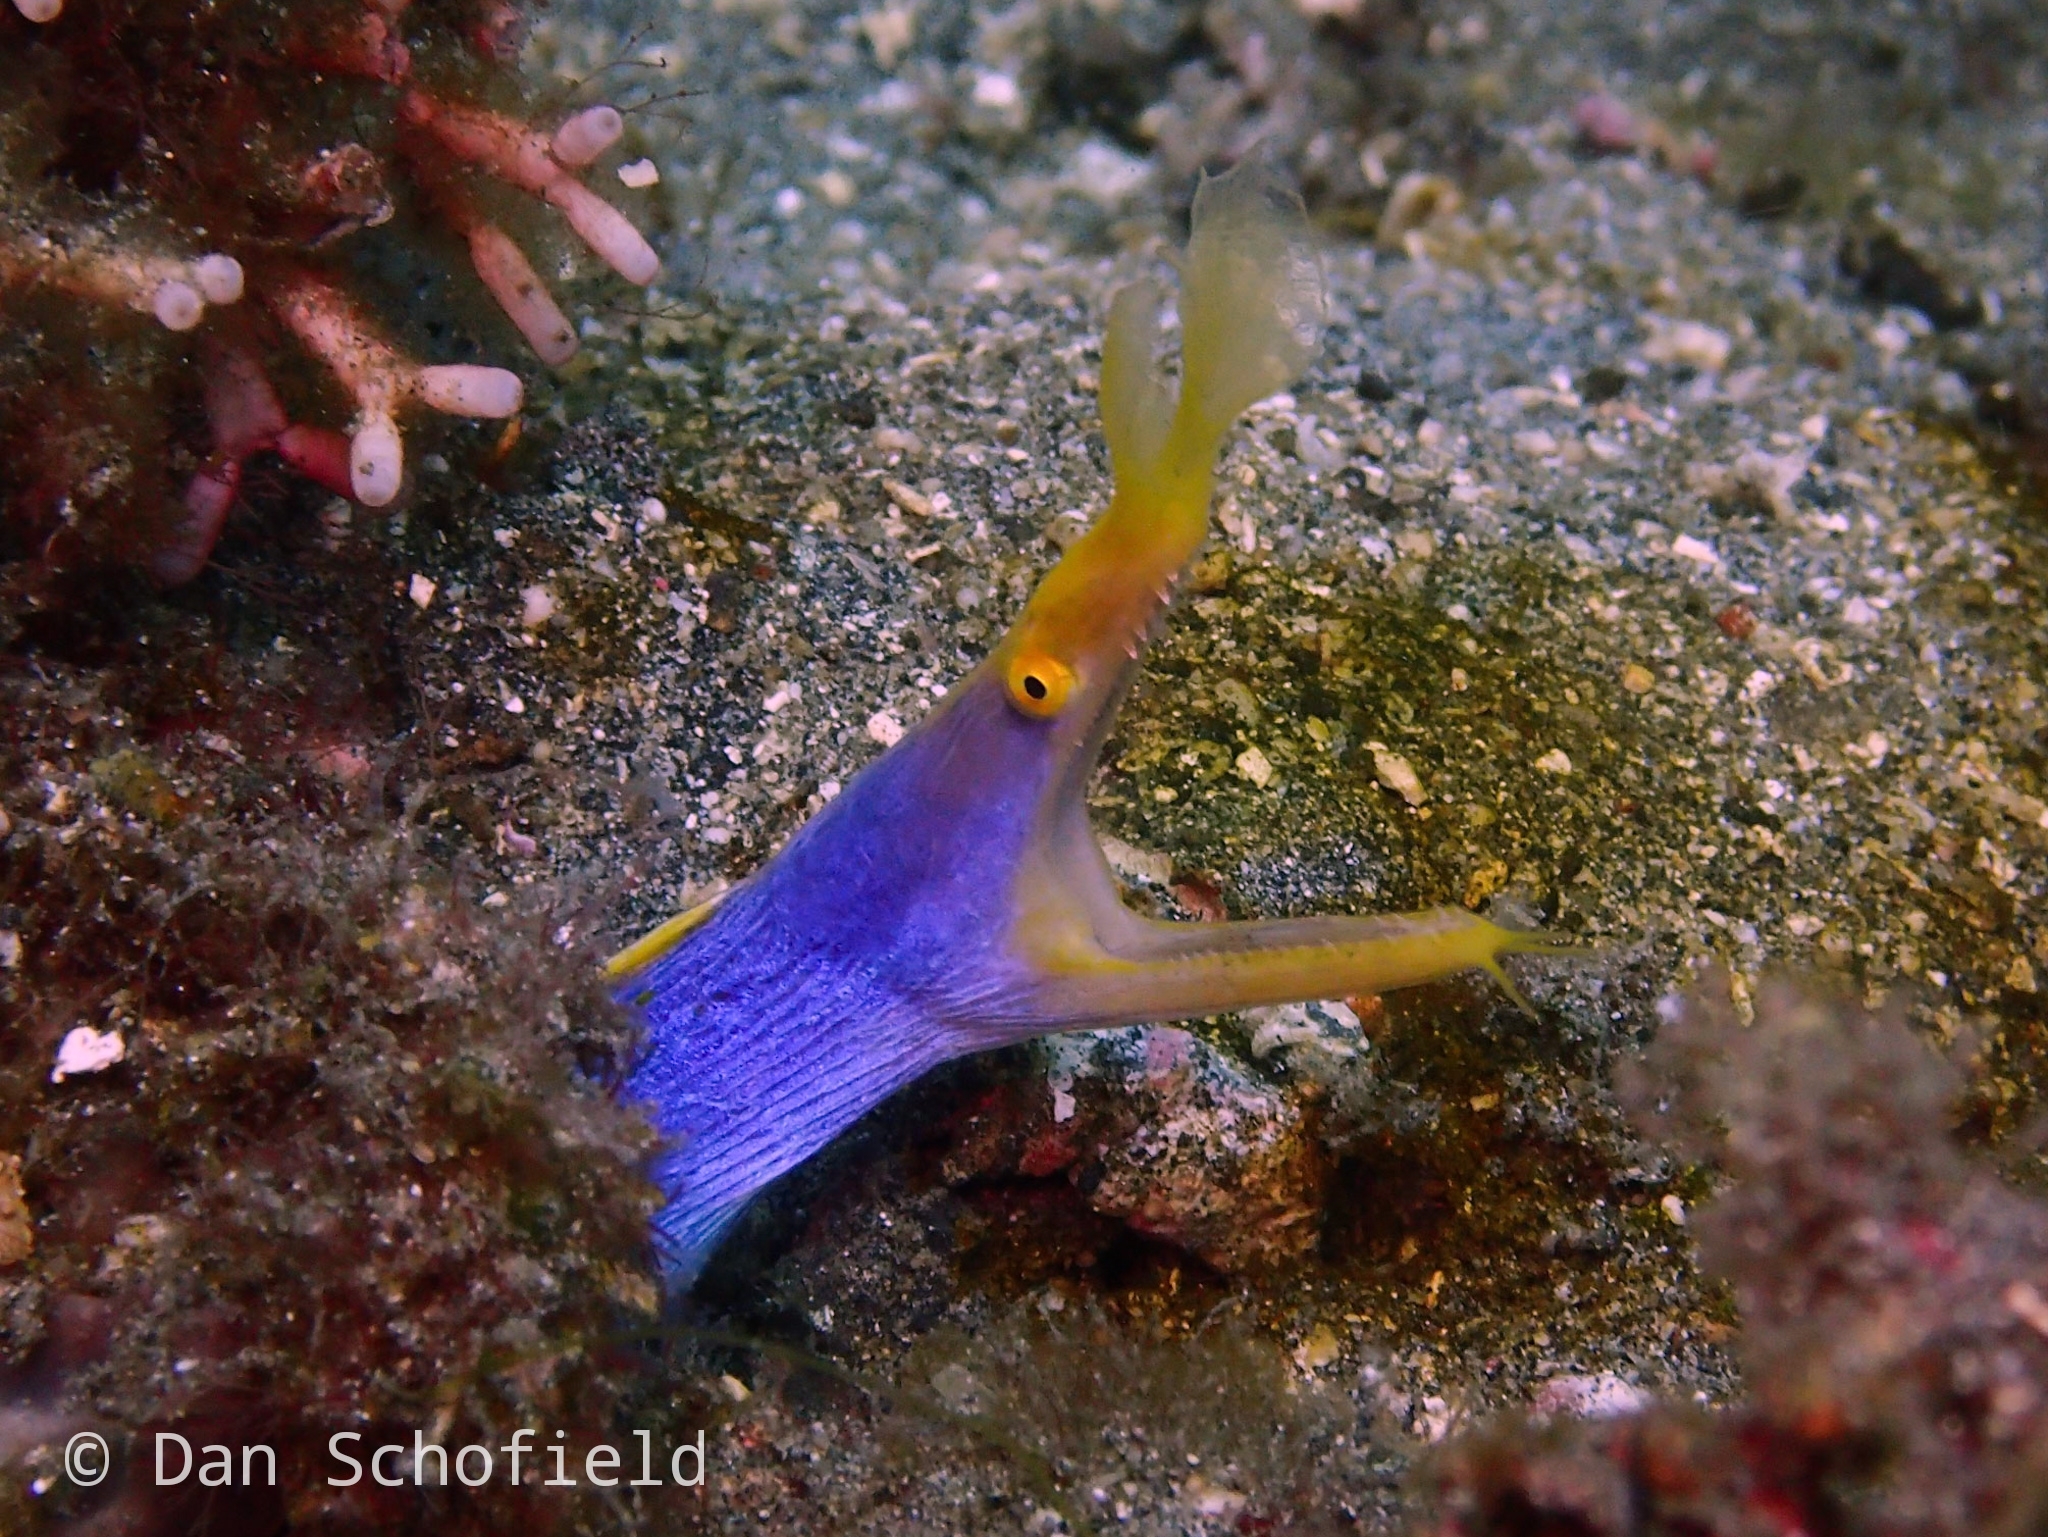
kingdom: Animalia
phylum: Chordata
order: Anguilliformes
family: Muraenidae
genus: Rhinomuraena
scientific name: Rhinomuraena quaesita
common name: Ribbon eel
